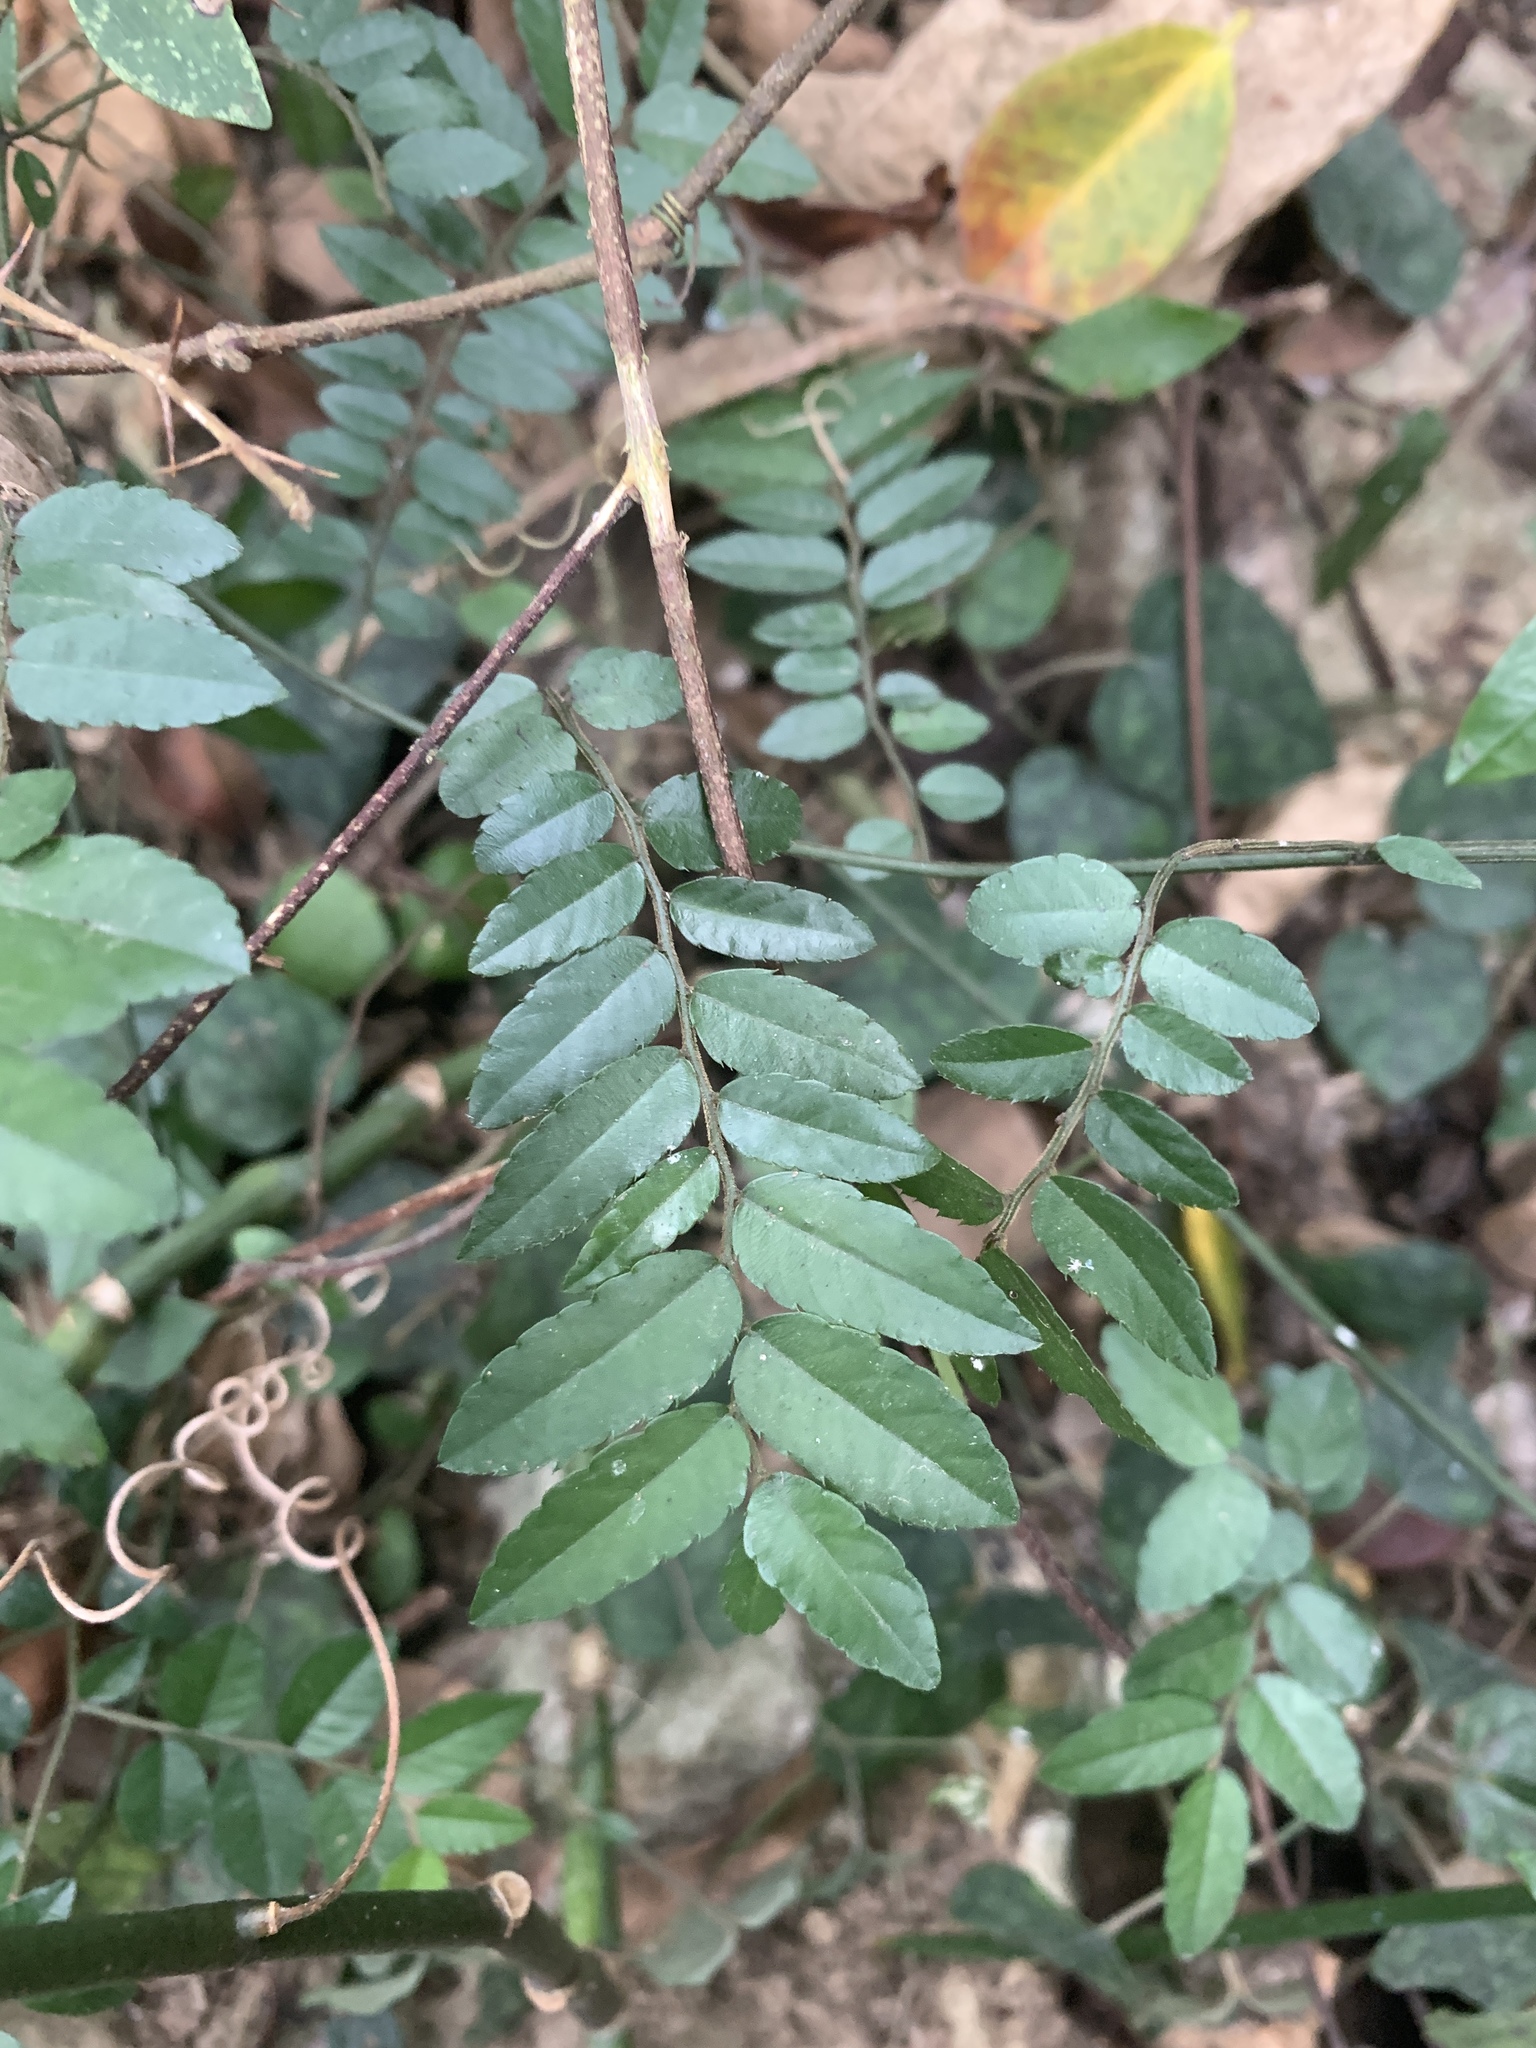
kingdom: Plantae
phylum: Tracheophyta
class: Magnoliopsida
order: Rosales
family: Rhamnaceae
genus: Ventilago
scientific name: Ventilago elegans
